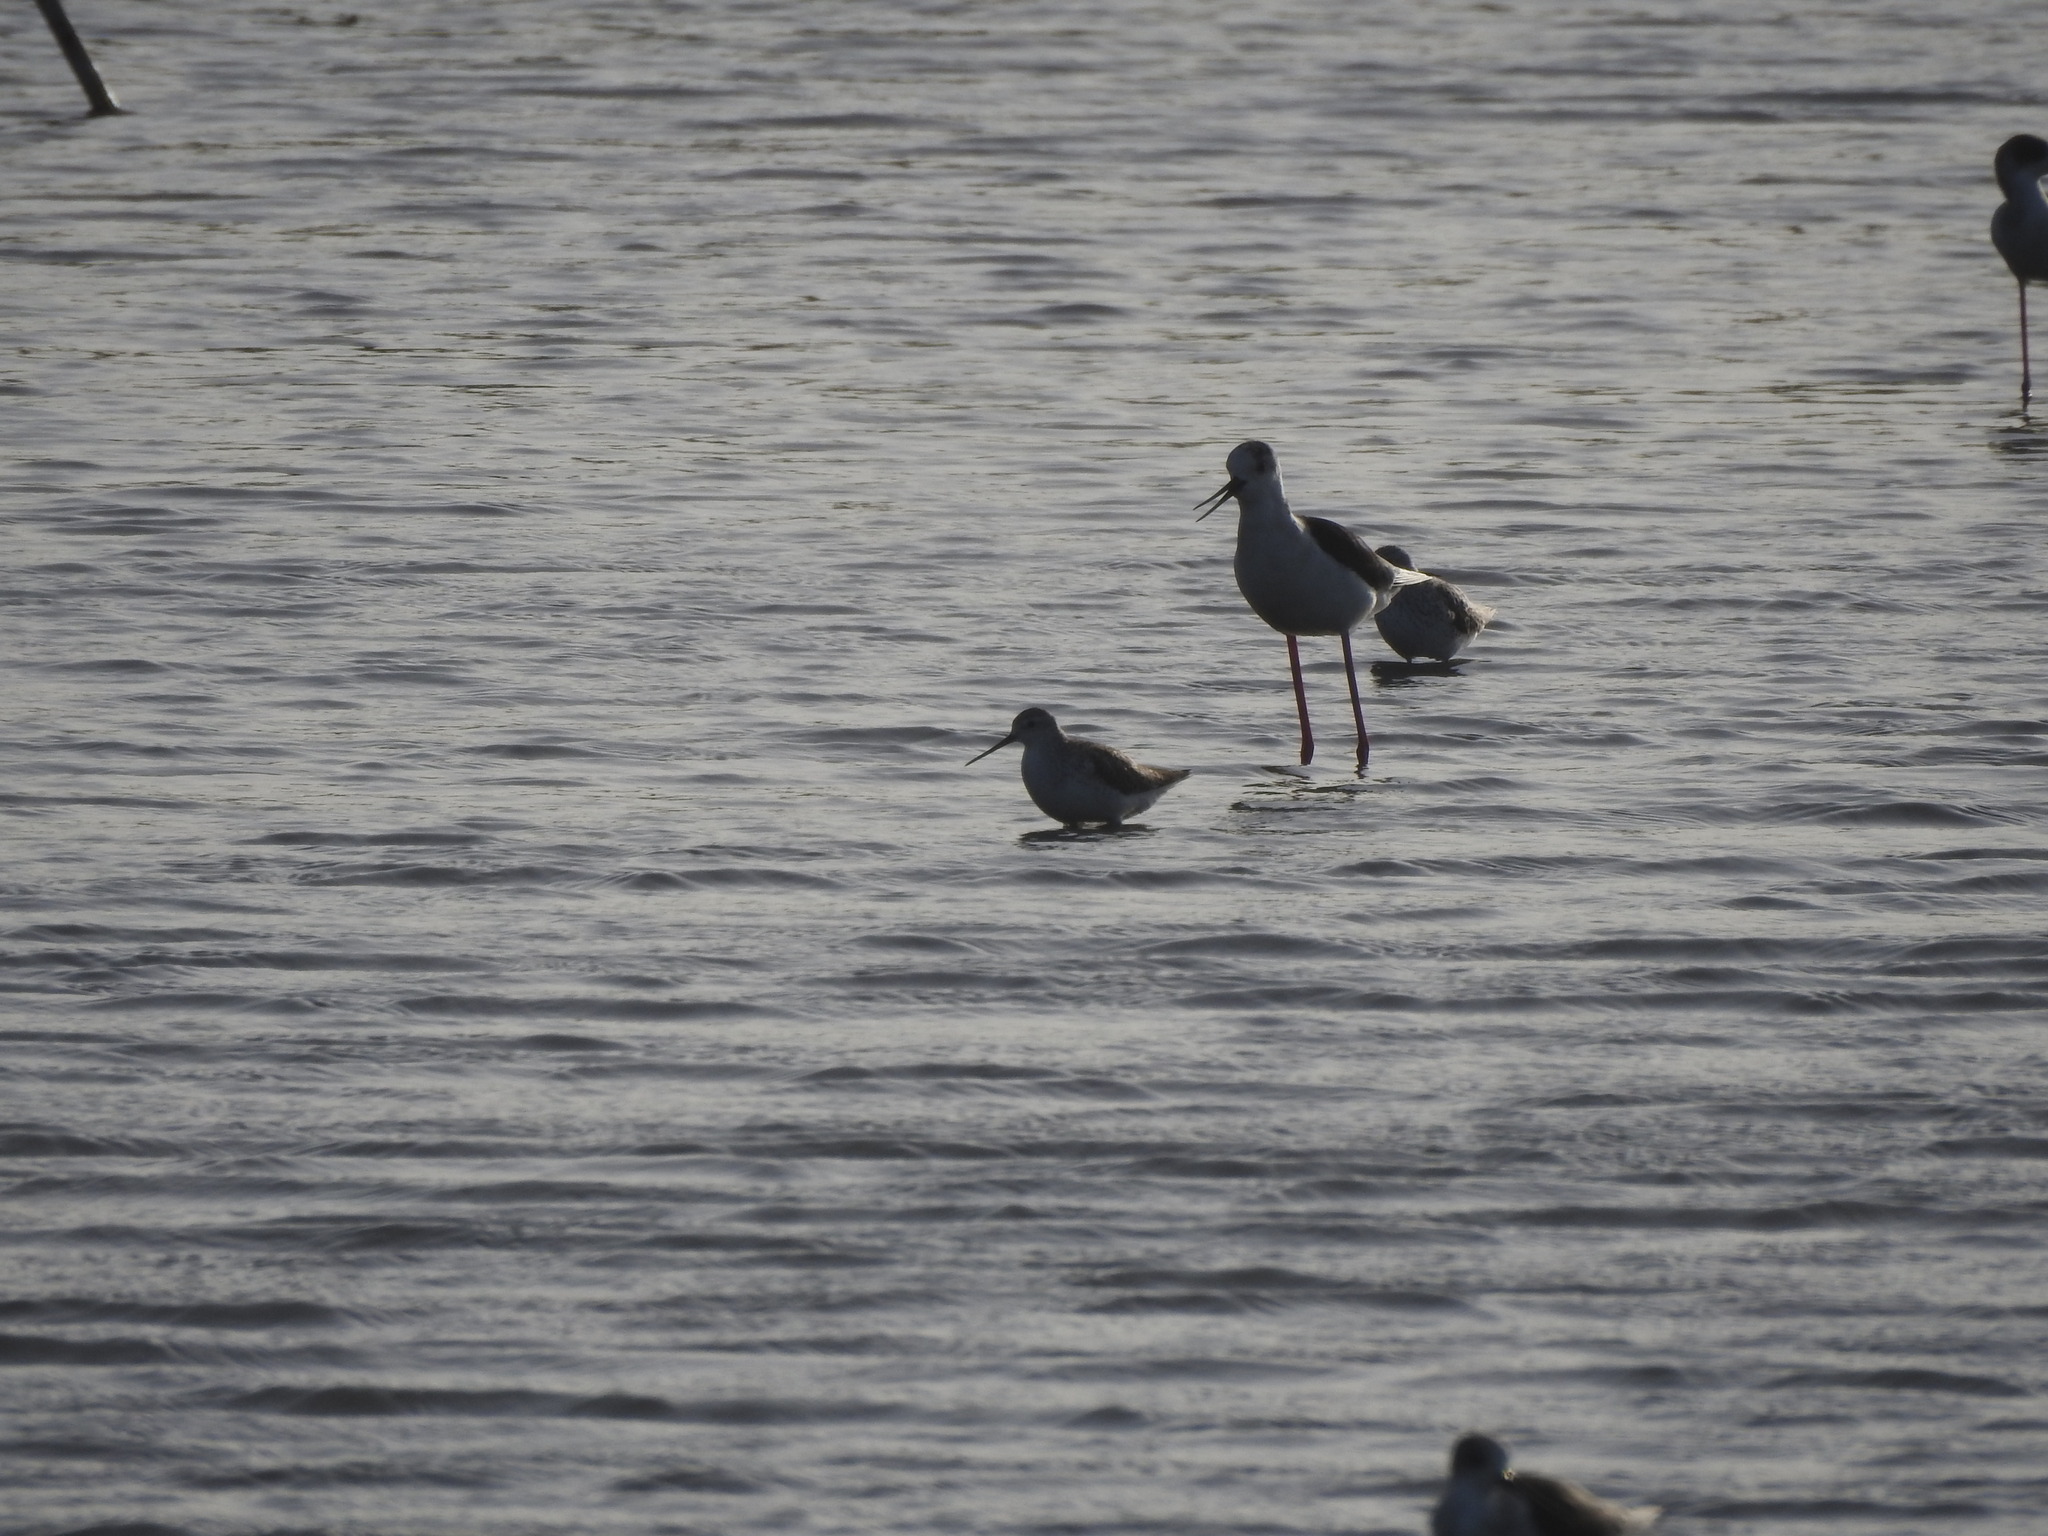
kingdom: Animalia
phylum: Chordata
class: Aves
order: Charadriiformes
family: Recurvirostridae
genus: Himantopus
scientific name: Himantopus himantopus
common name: Black-winged stilt
